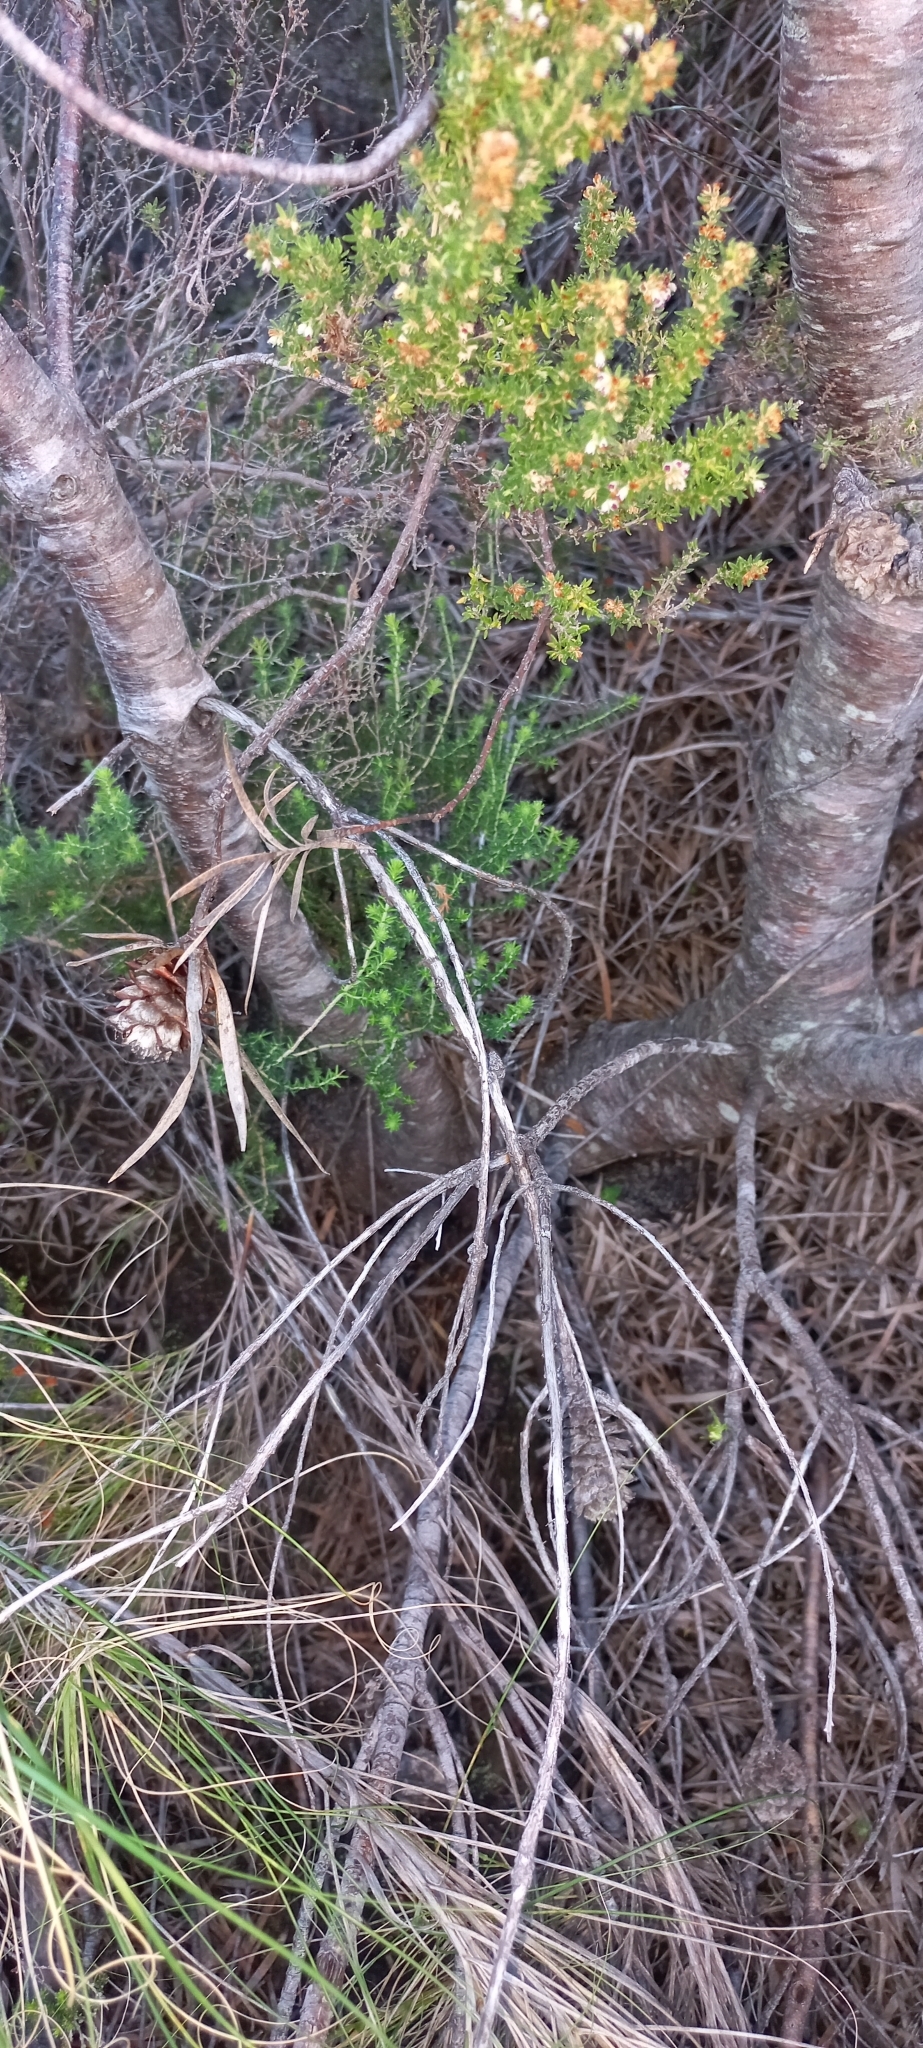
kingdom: Plantae
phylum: Tracheophyta
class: Magnoliopsida
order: Proteales
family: Proteaceae
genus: Leucadendron
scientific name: Leucadendron xanthoconus
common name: Sickle-leaf conebush
